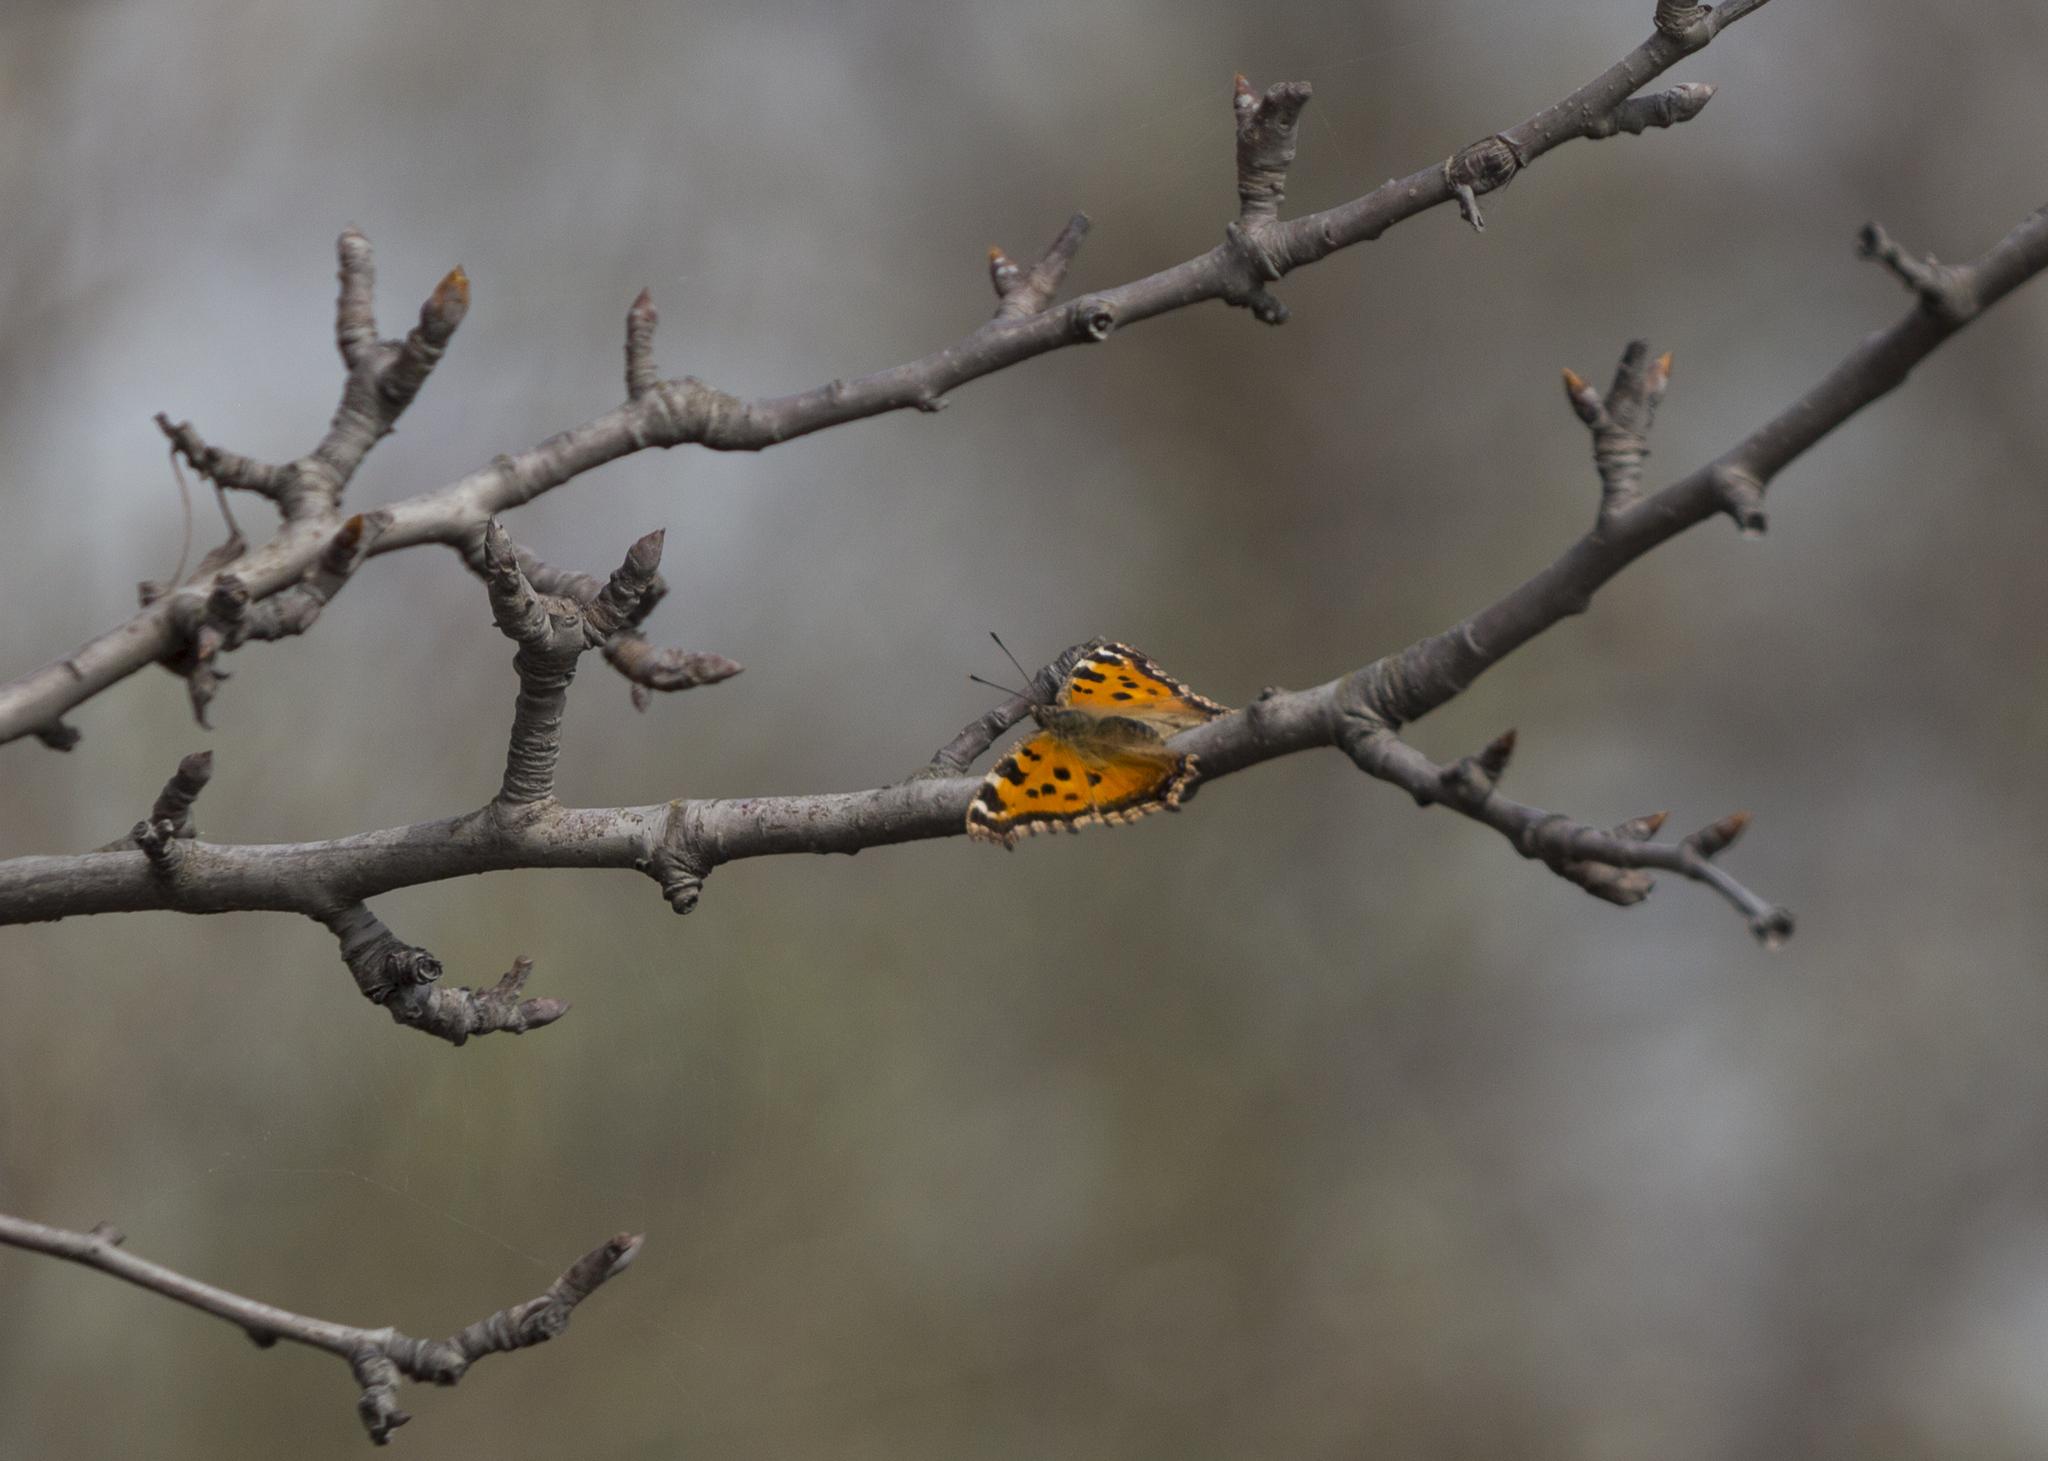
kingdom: Animalia
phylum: Arthropoda
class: Insecta
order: Lepidoptera
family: Nymphalidae
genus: Nymphalis
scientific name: Nymphalis xanthomelas
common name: Scarce tortoiseshell
